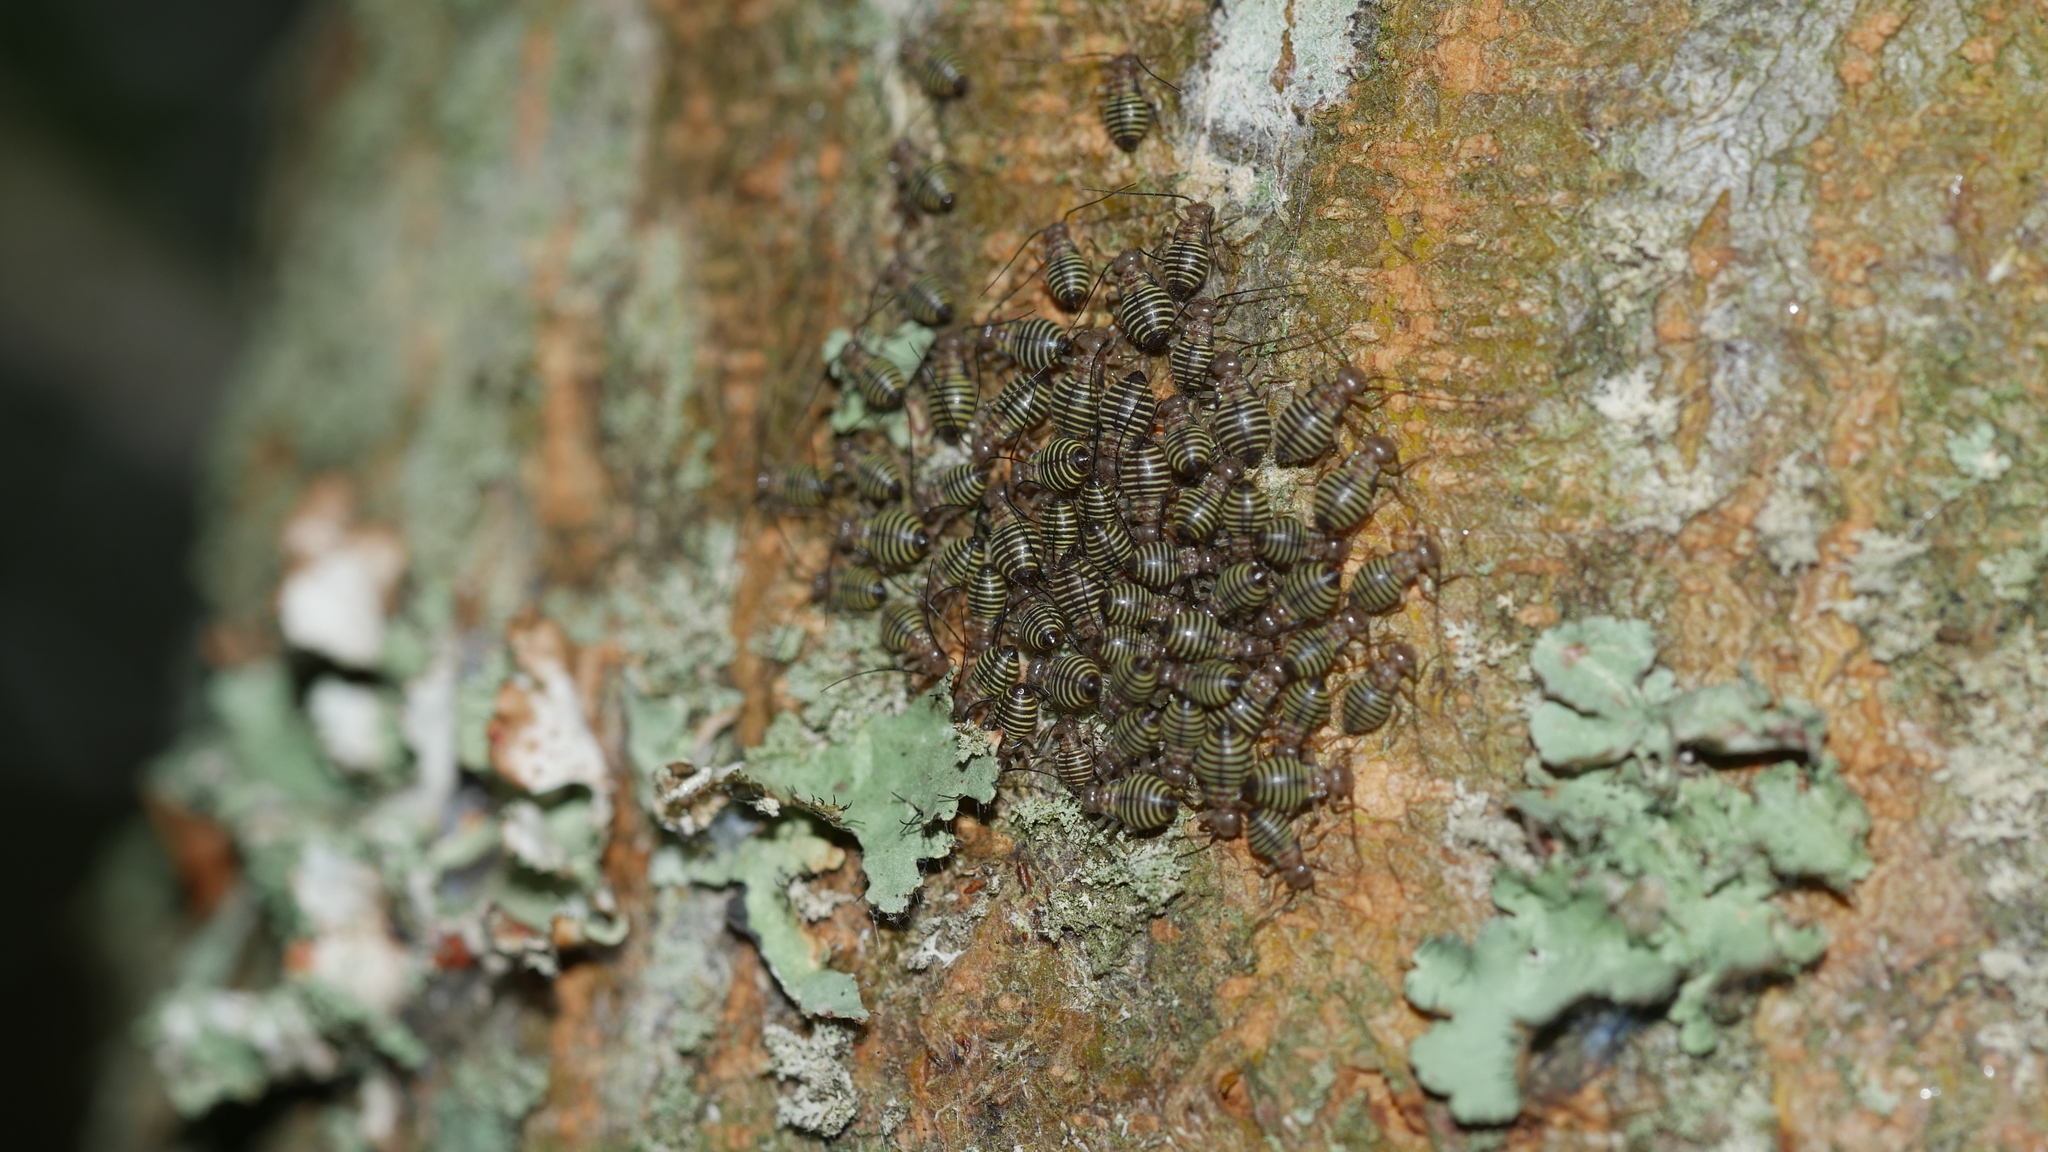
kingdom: Animalia
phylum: Arthropoda
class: Insecta
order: Psocodea
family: Psocidae
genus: Cerastipsocus
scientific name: Cerastipsocus venosus
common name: Tree cattle
